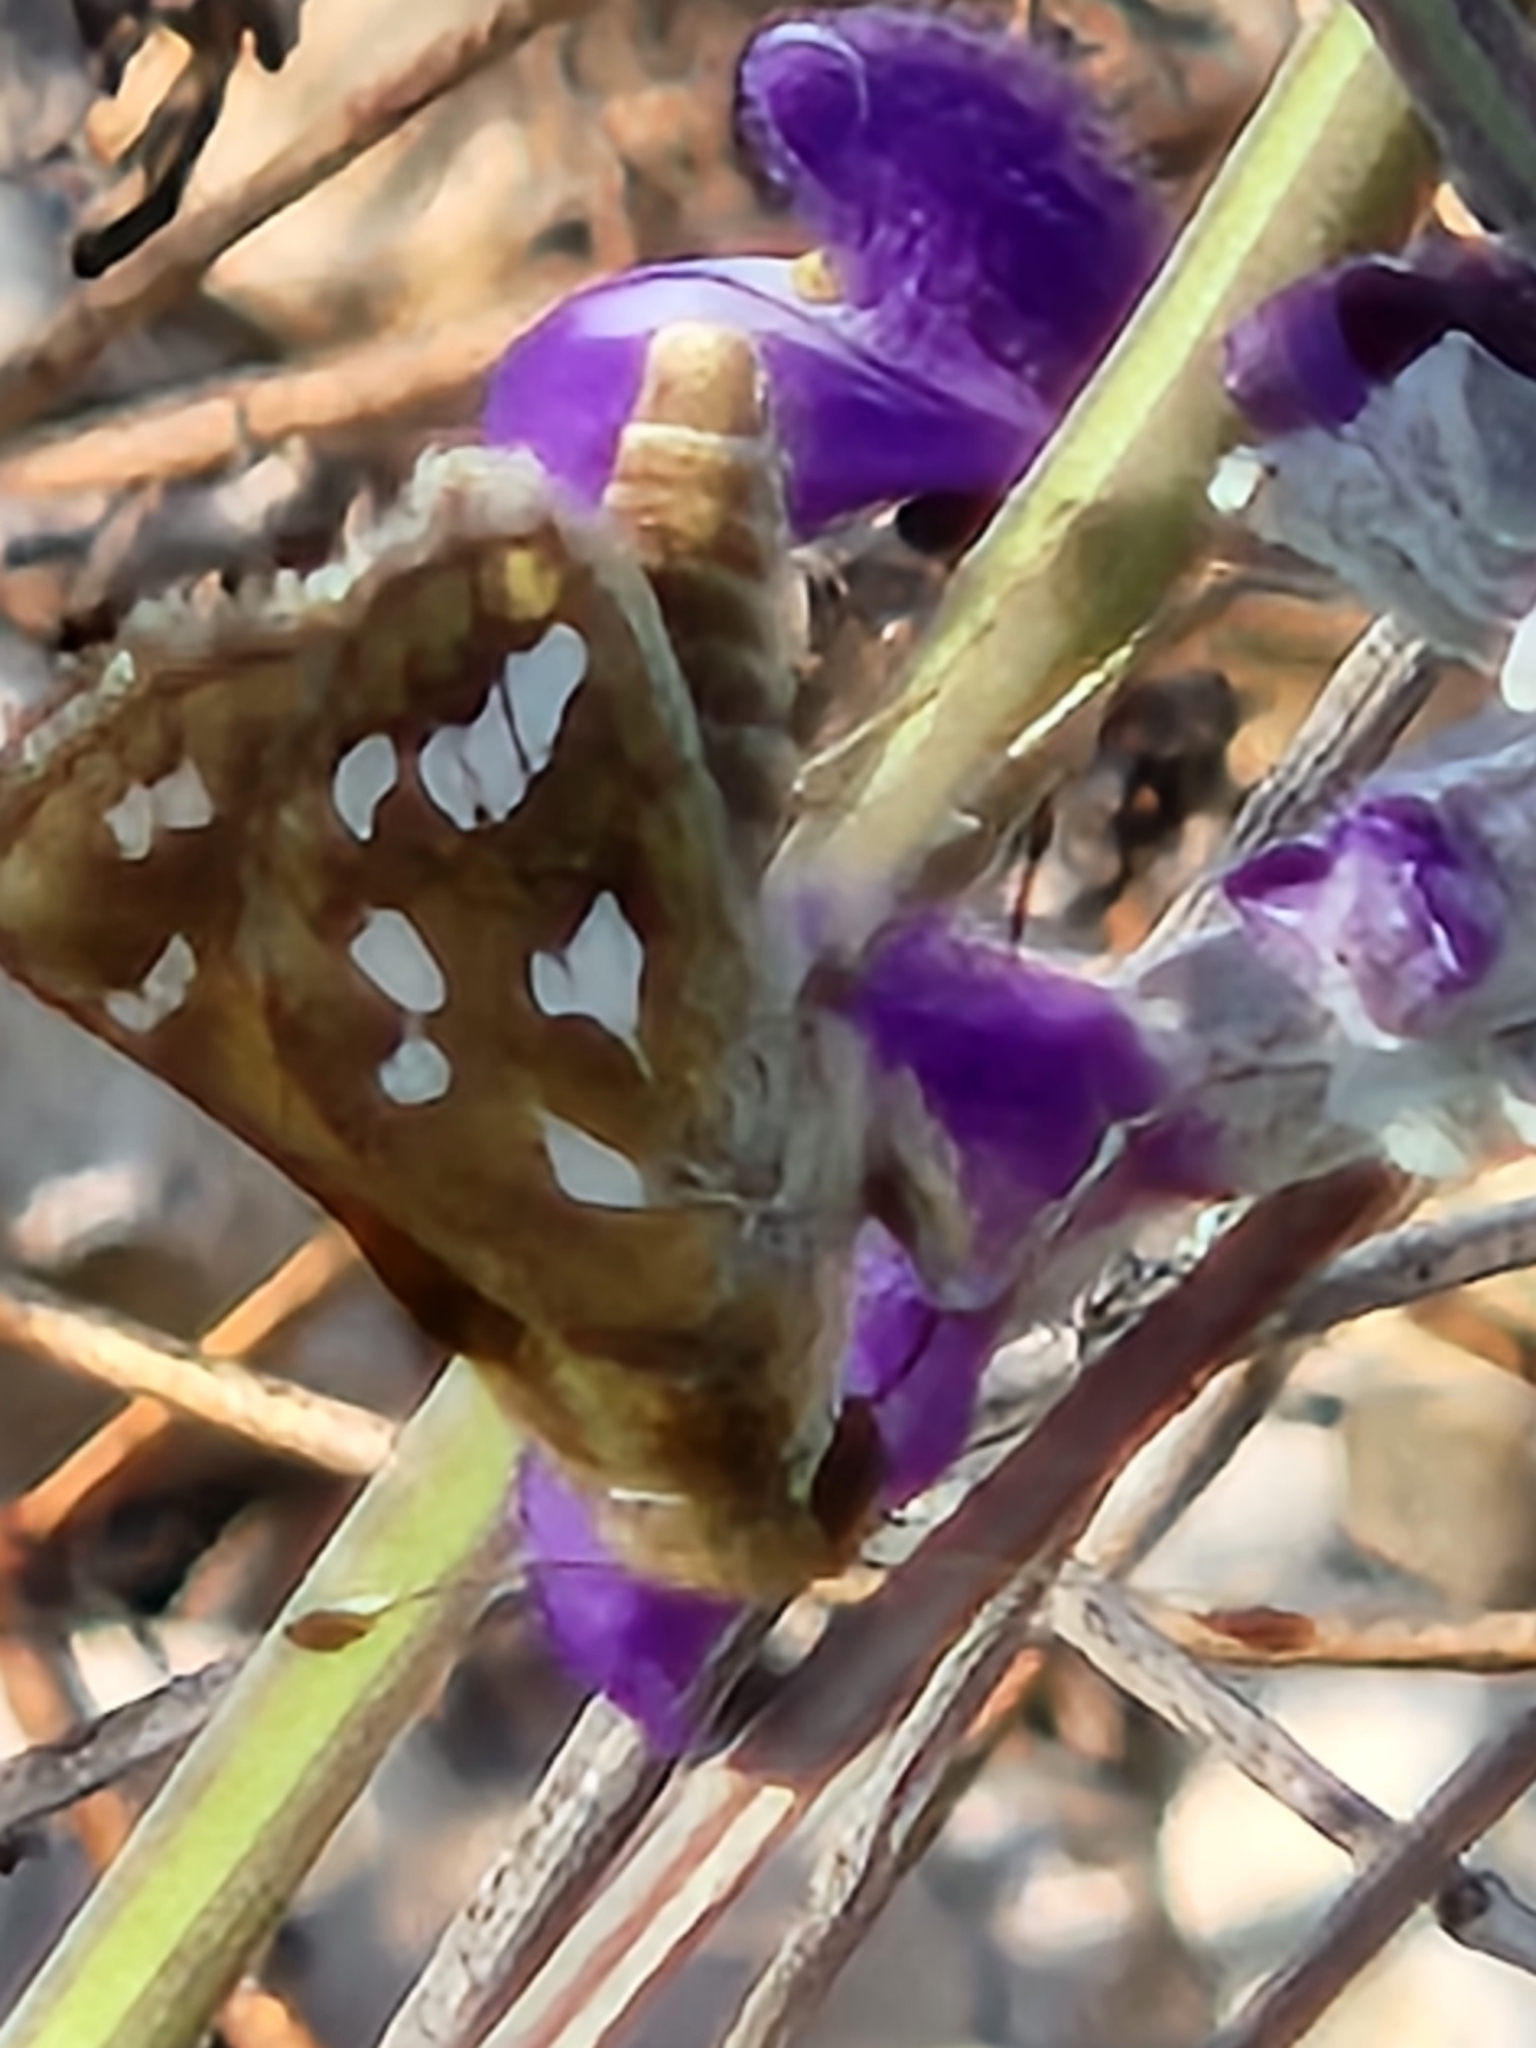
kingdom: Animalia
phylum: Arthropoda
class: Insecta
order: Lepidoptera
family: Hesperiidae
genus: Hesperia
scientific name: Hesperia viridis
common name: Green skipper
